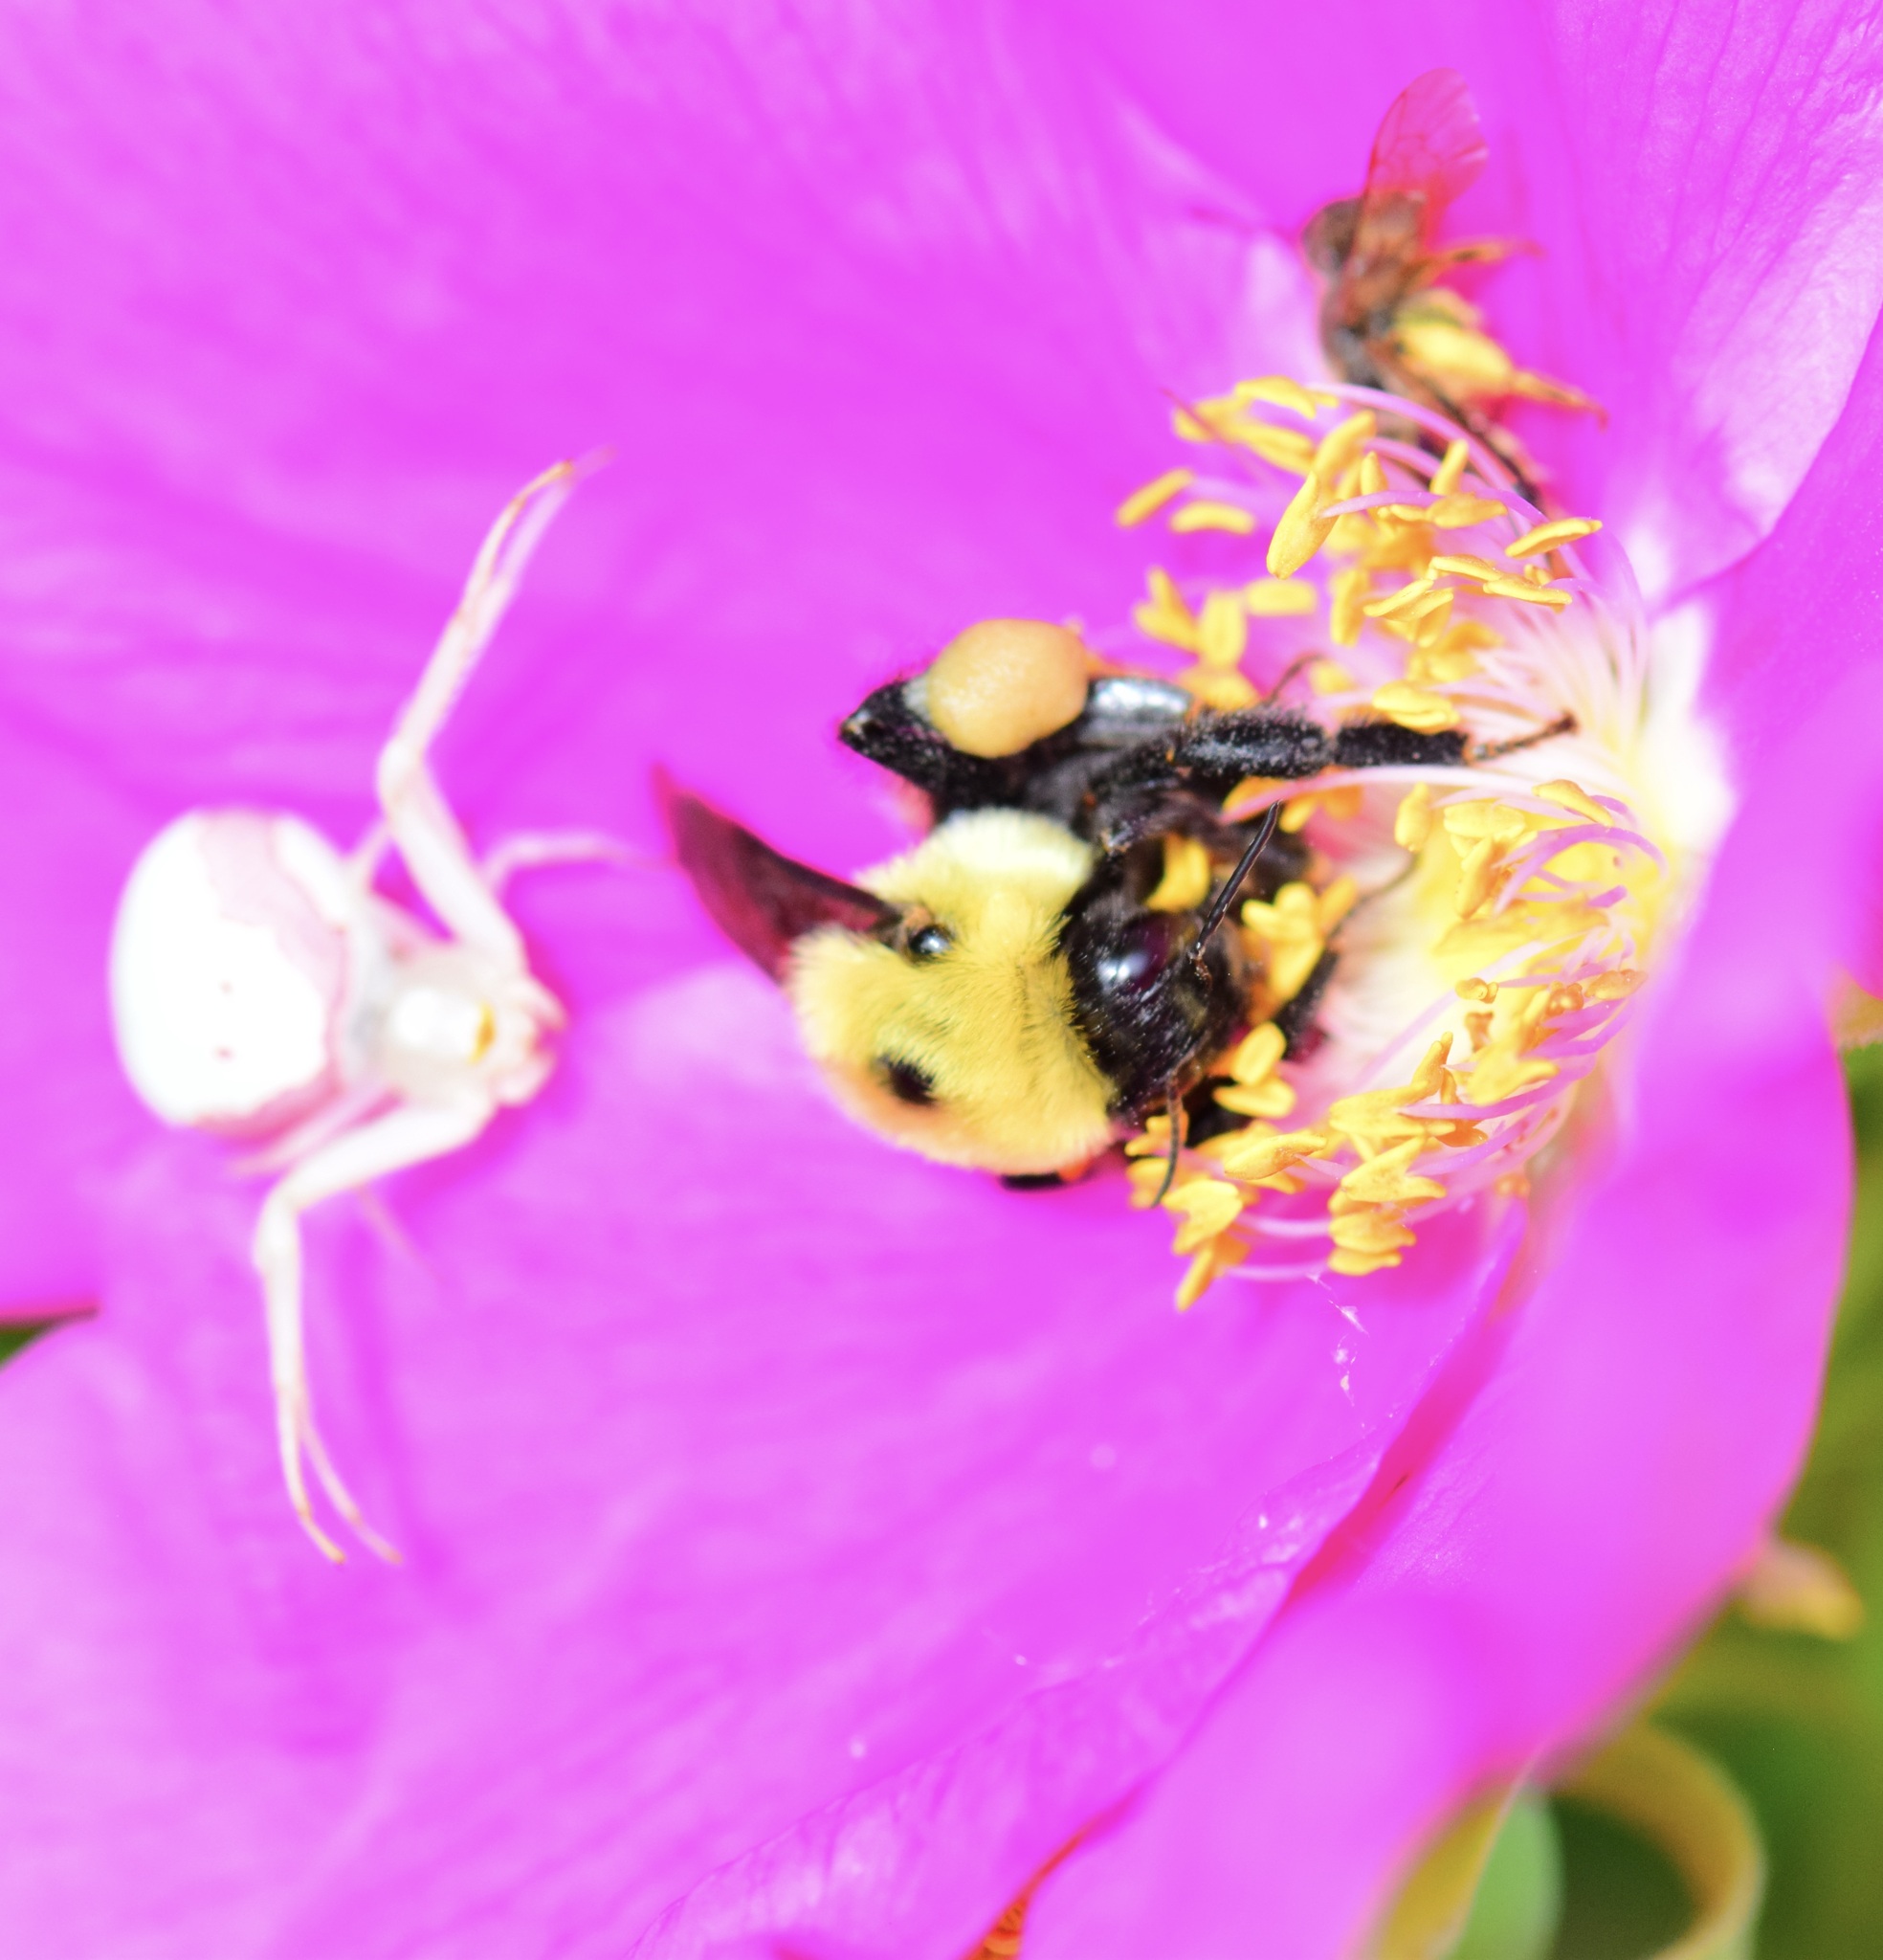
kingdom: Animalia
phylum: Arthropoda
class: Insecta
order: Hymenoptera
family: Apidae
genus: Bombus
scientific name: Bombus griseocollis
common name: Brown-belted bumble bee
